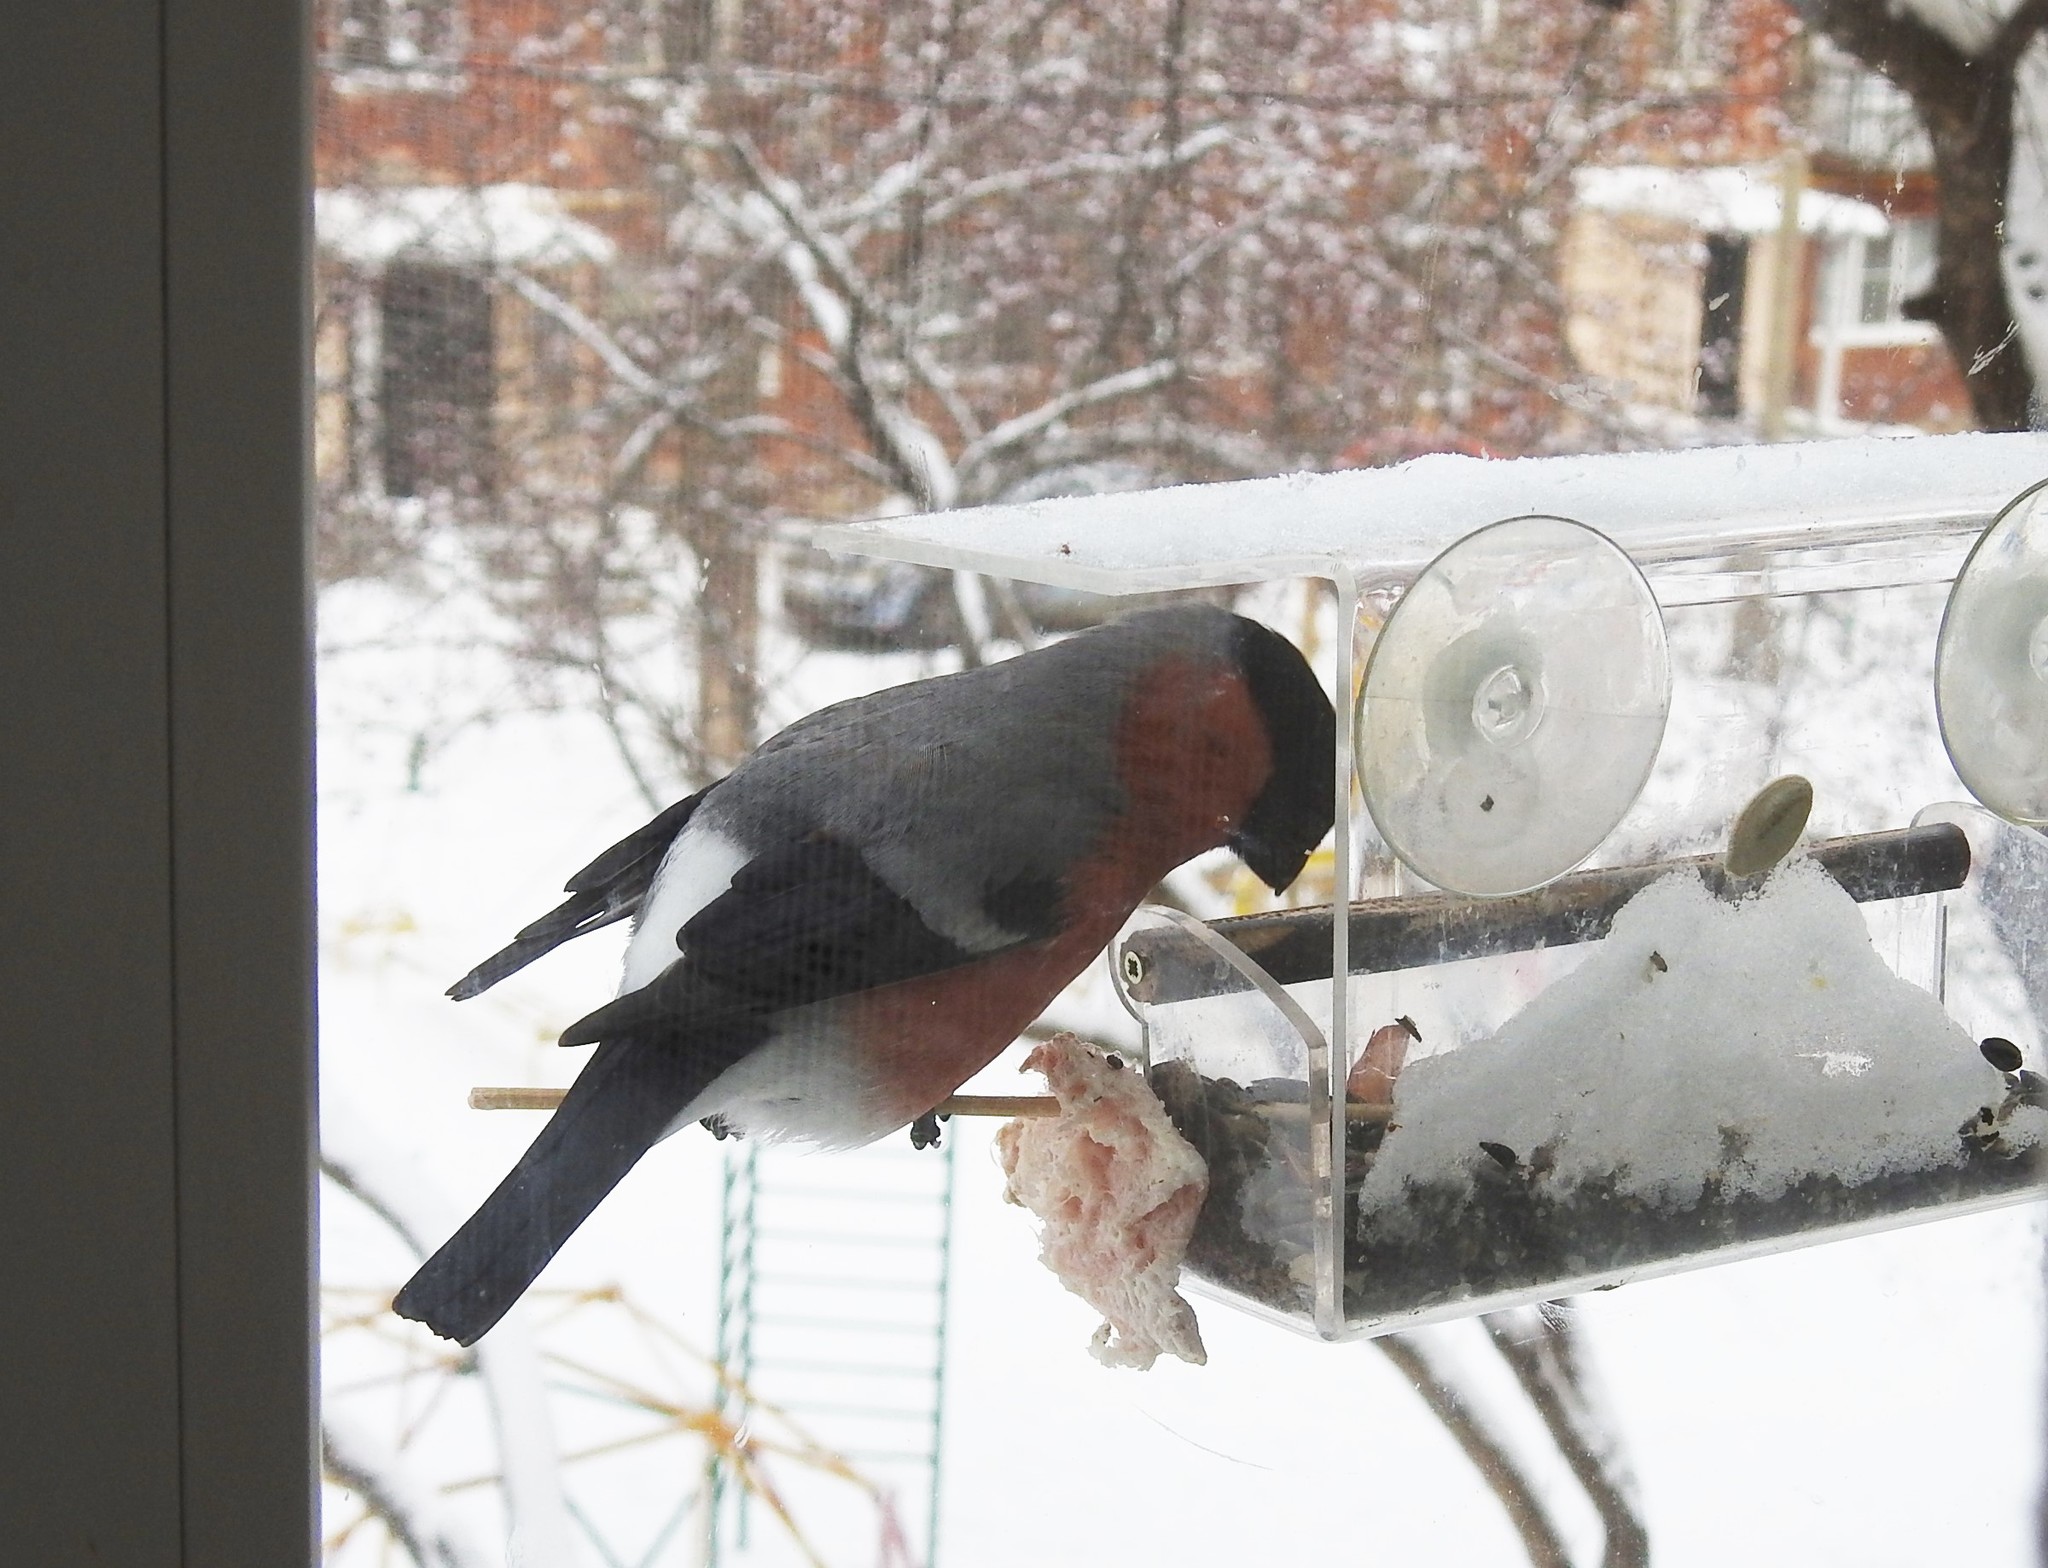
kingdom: Animalia
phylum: Chordata
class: Aves
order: Passeriformes
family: Fringillidae
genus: Pyrrhula
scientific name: Pyrrhula pyrrhula
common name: Eurasian bullfinch
